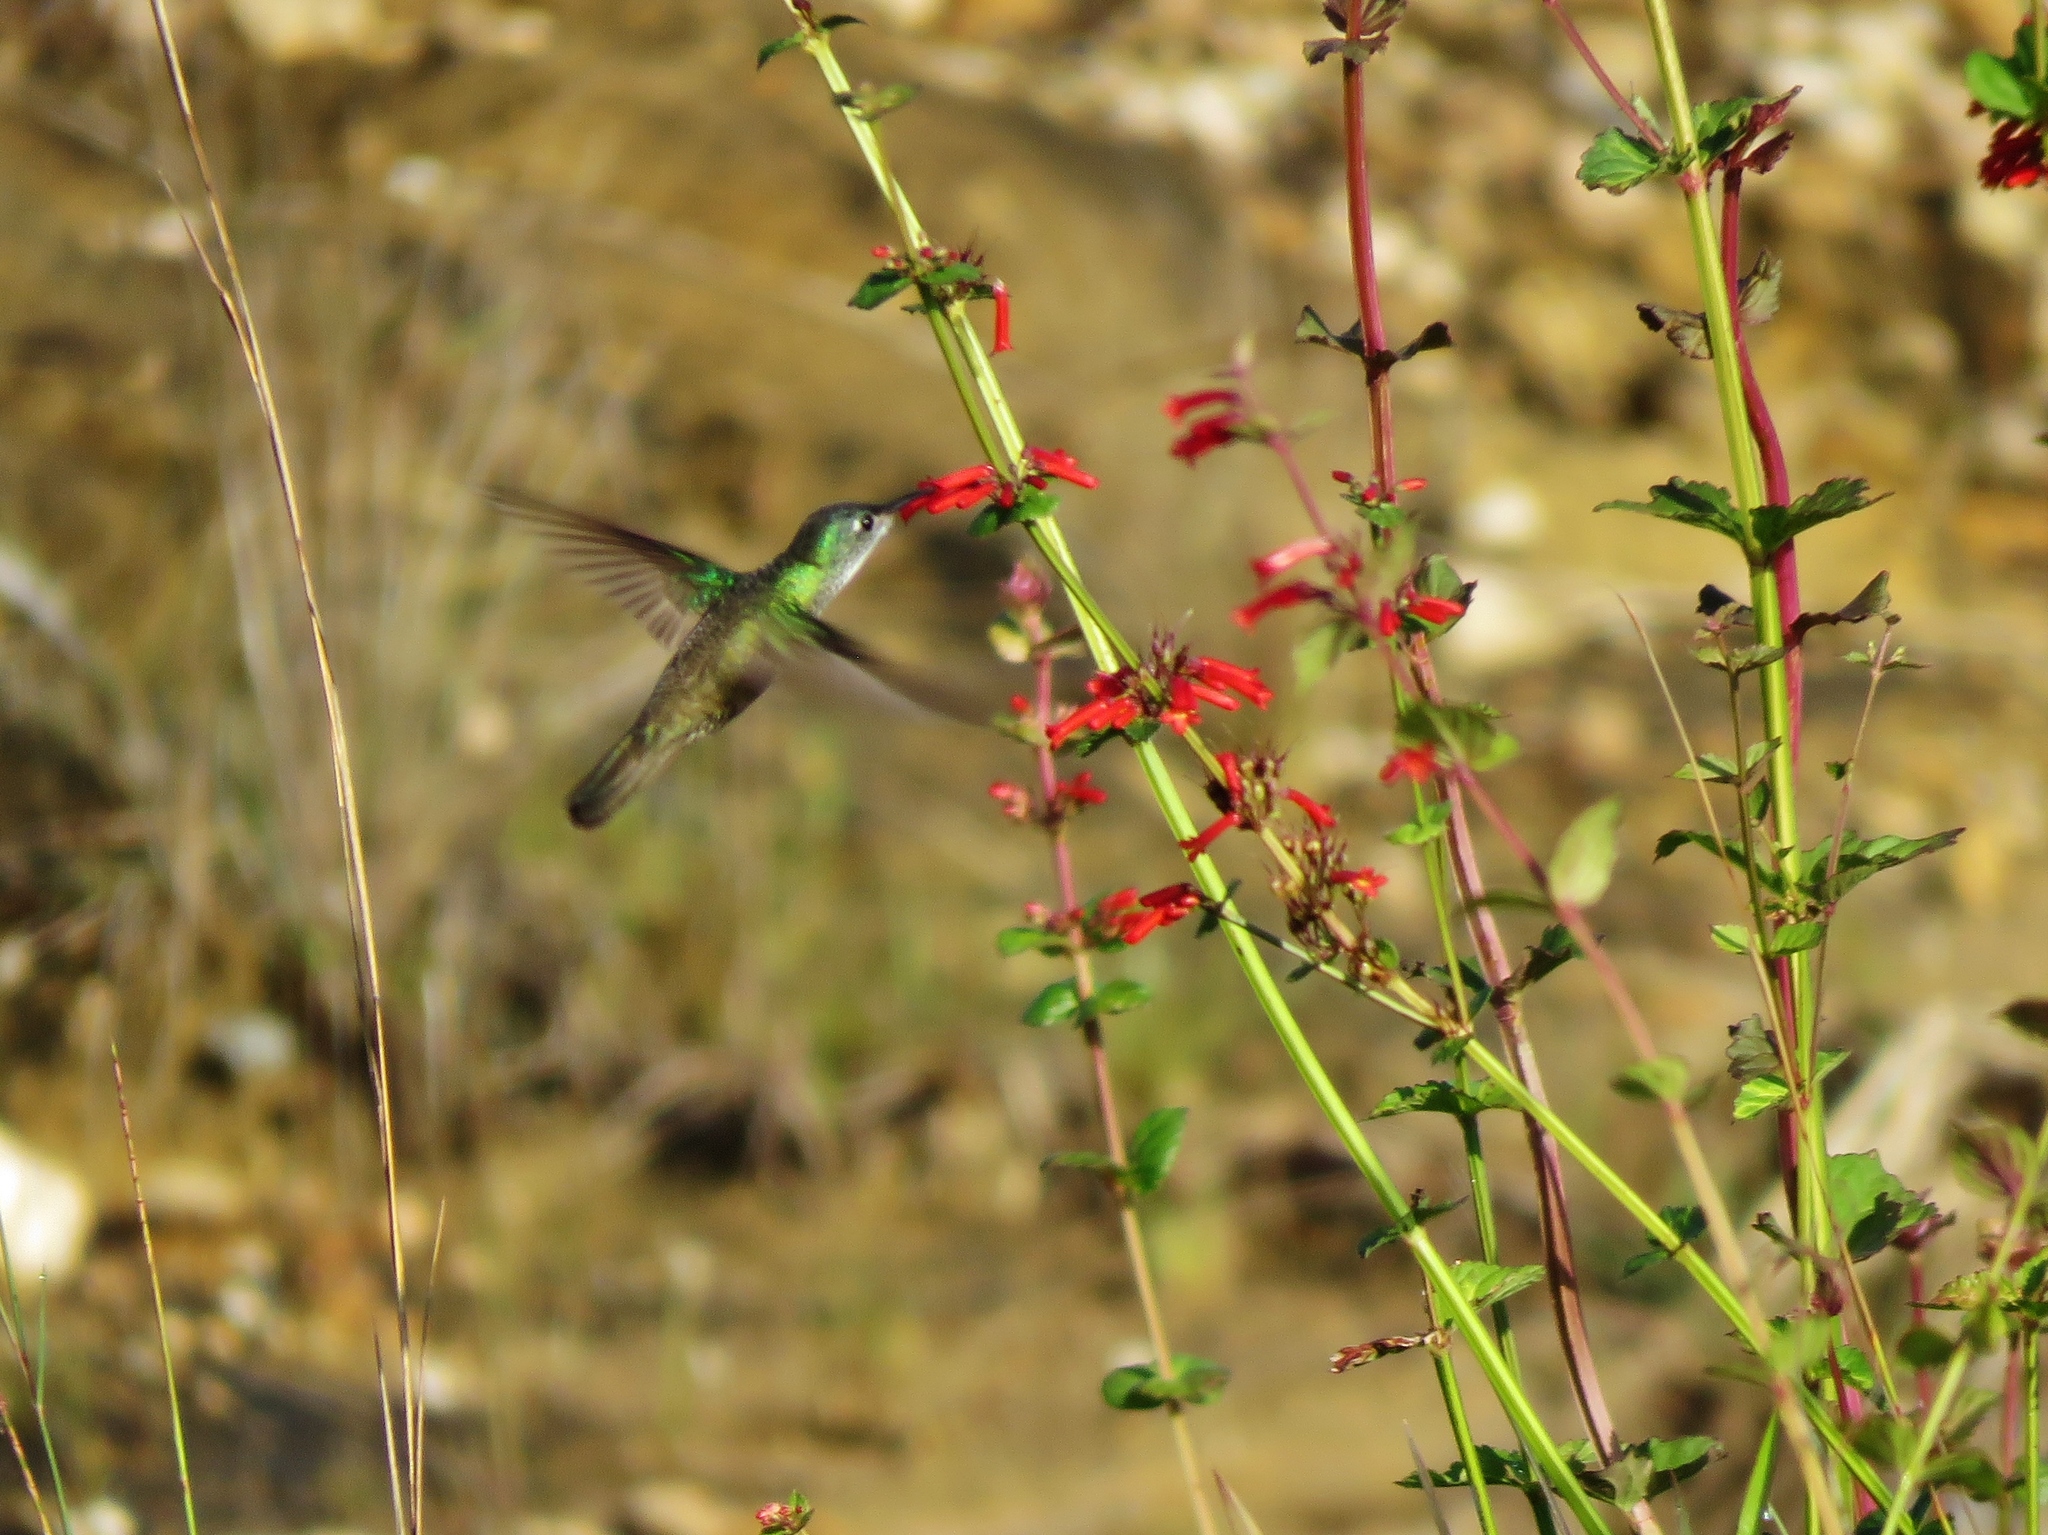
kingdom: Animalia
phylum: Chordata
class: Aves
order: Apodiformes
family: Trochilidae
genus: Saucerottia
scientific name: Saucerottia cyanocephala
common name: Azure-crowned hummingbird
